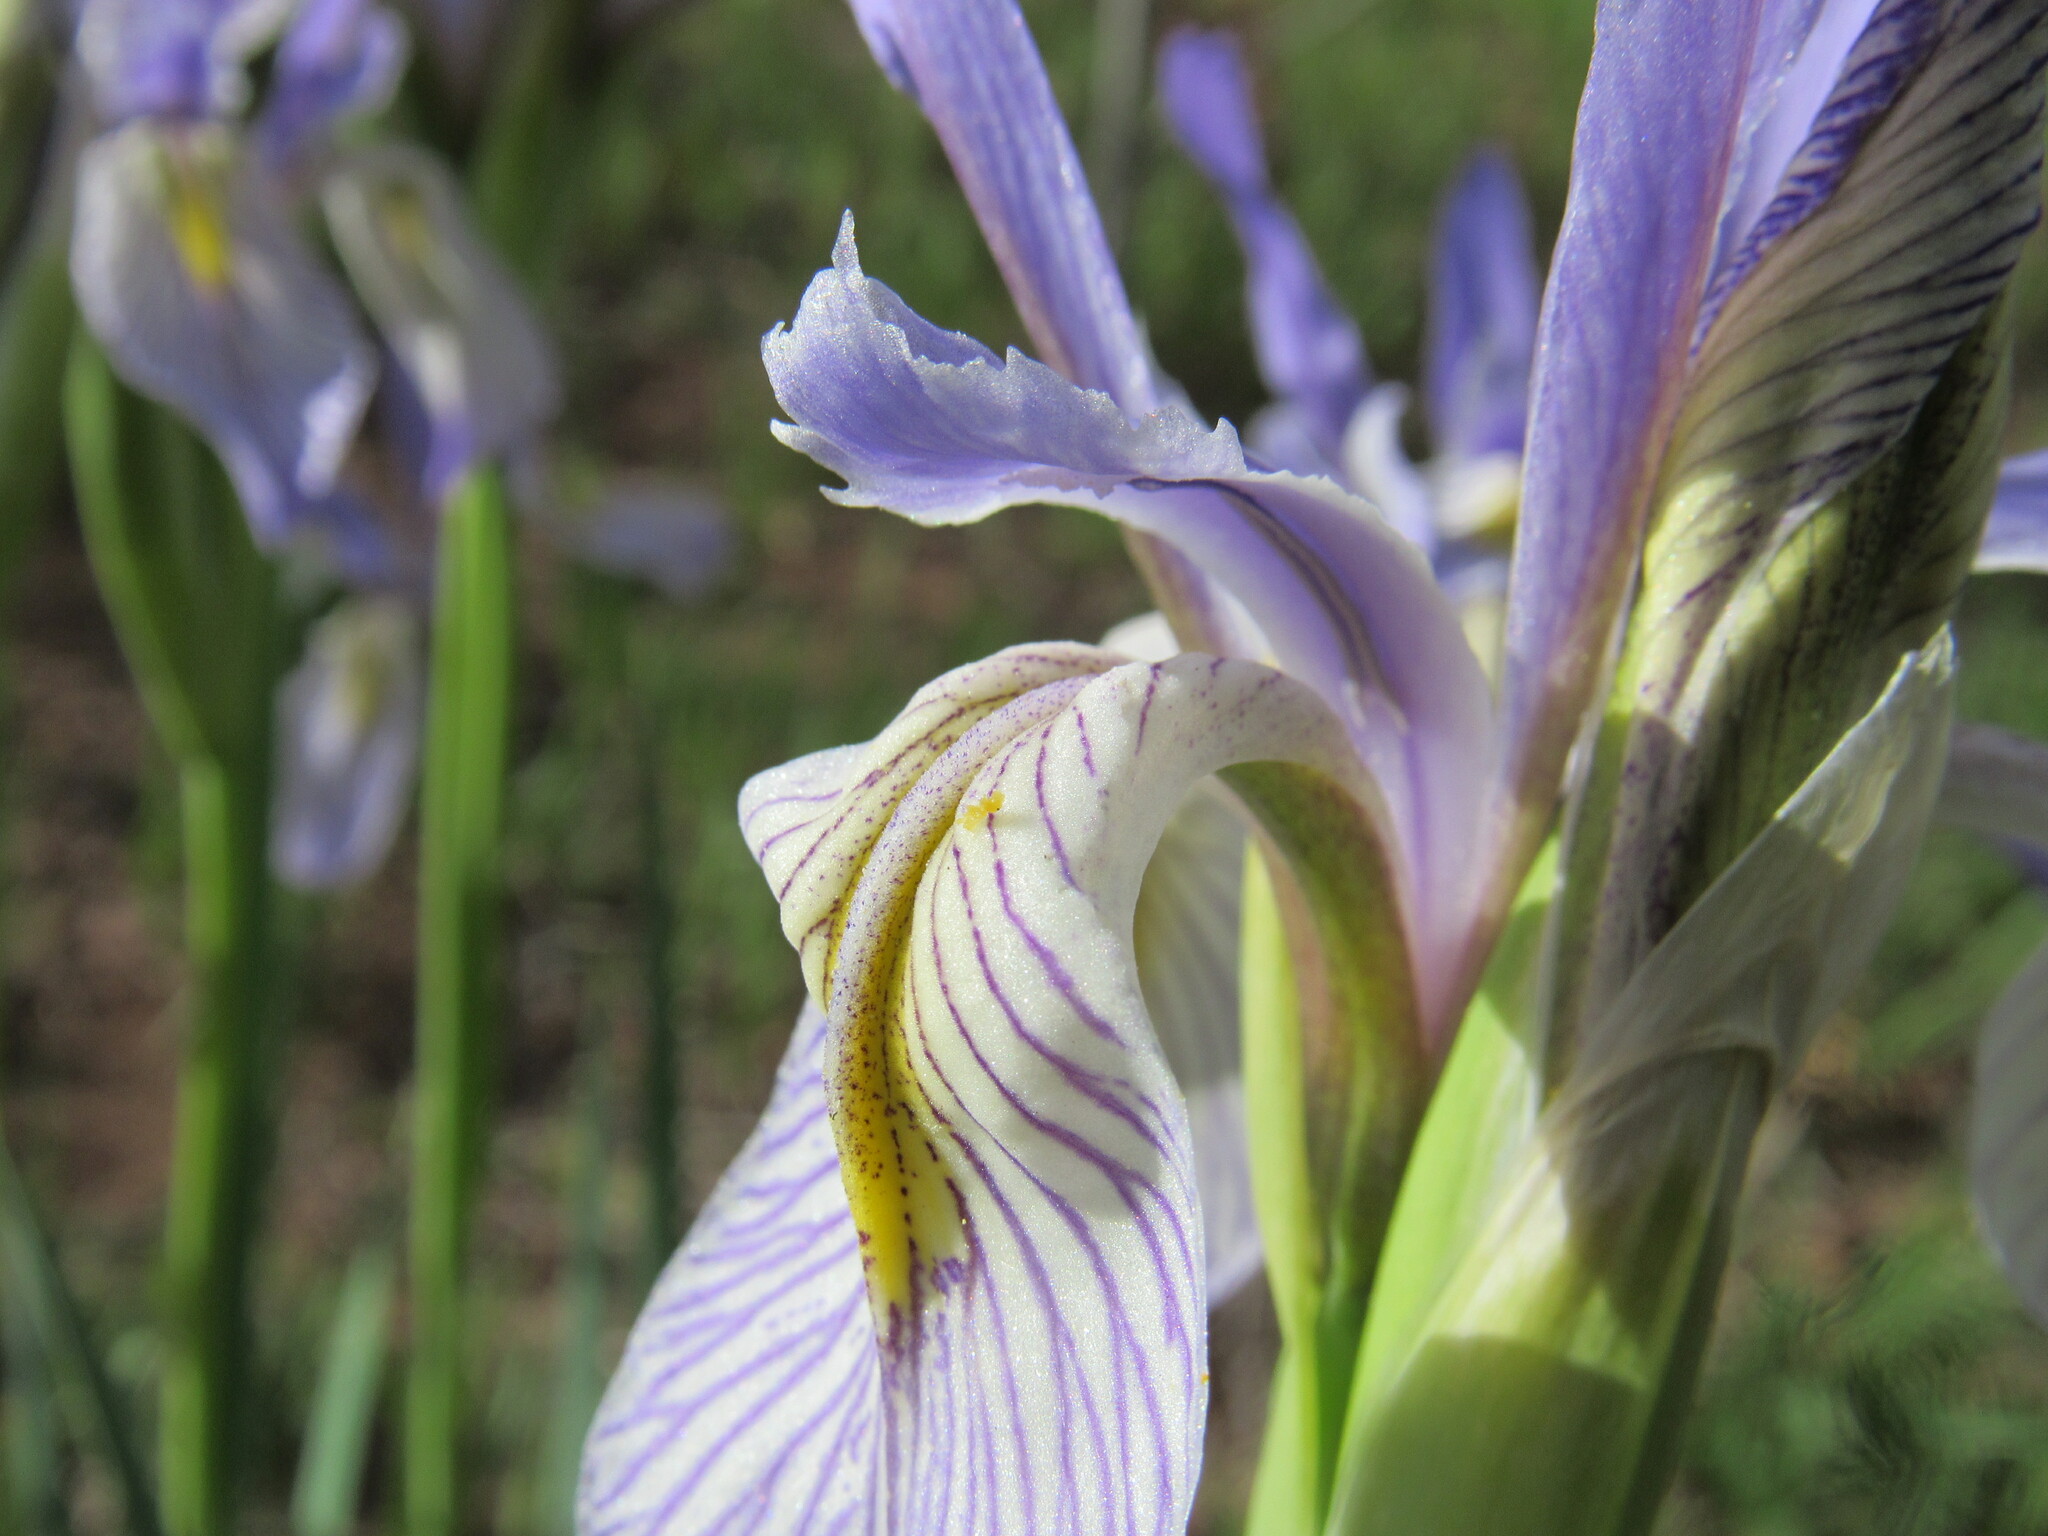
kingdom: Plantae
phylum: Tracheophyta
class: Liliopsida
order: Asparagales
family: Iridaceae
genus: Iris
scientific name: Iris missouriensis
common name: Rocky mountain iris
